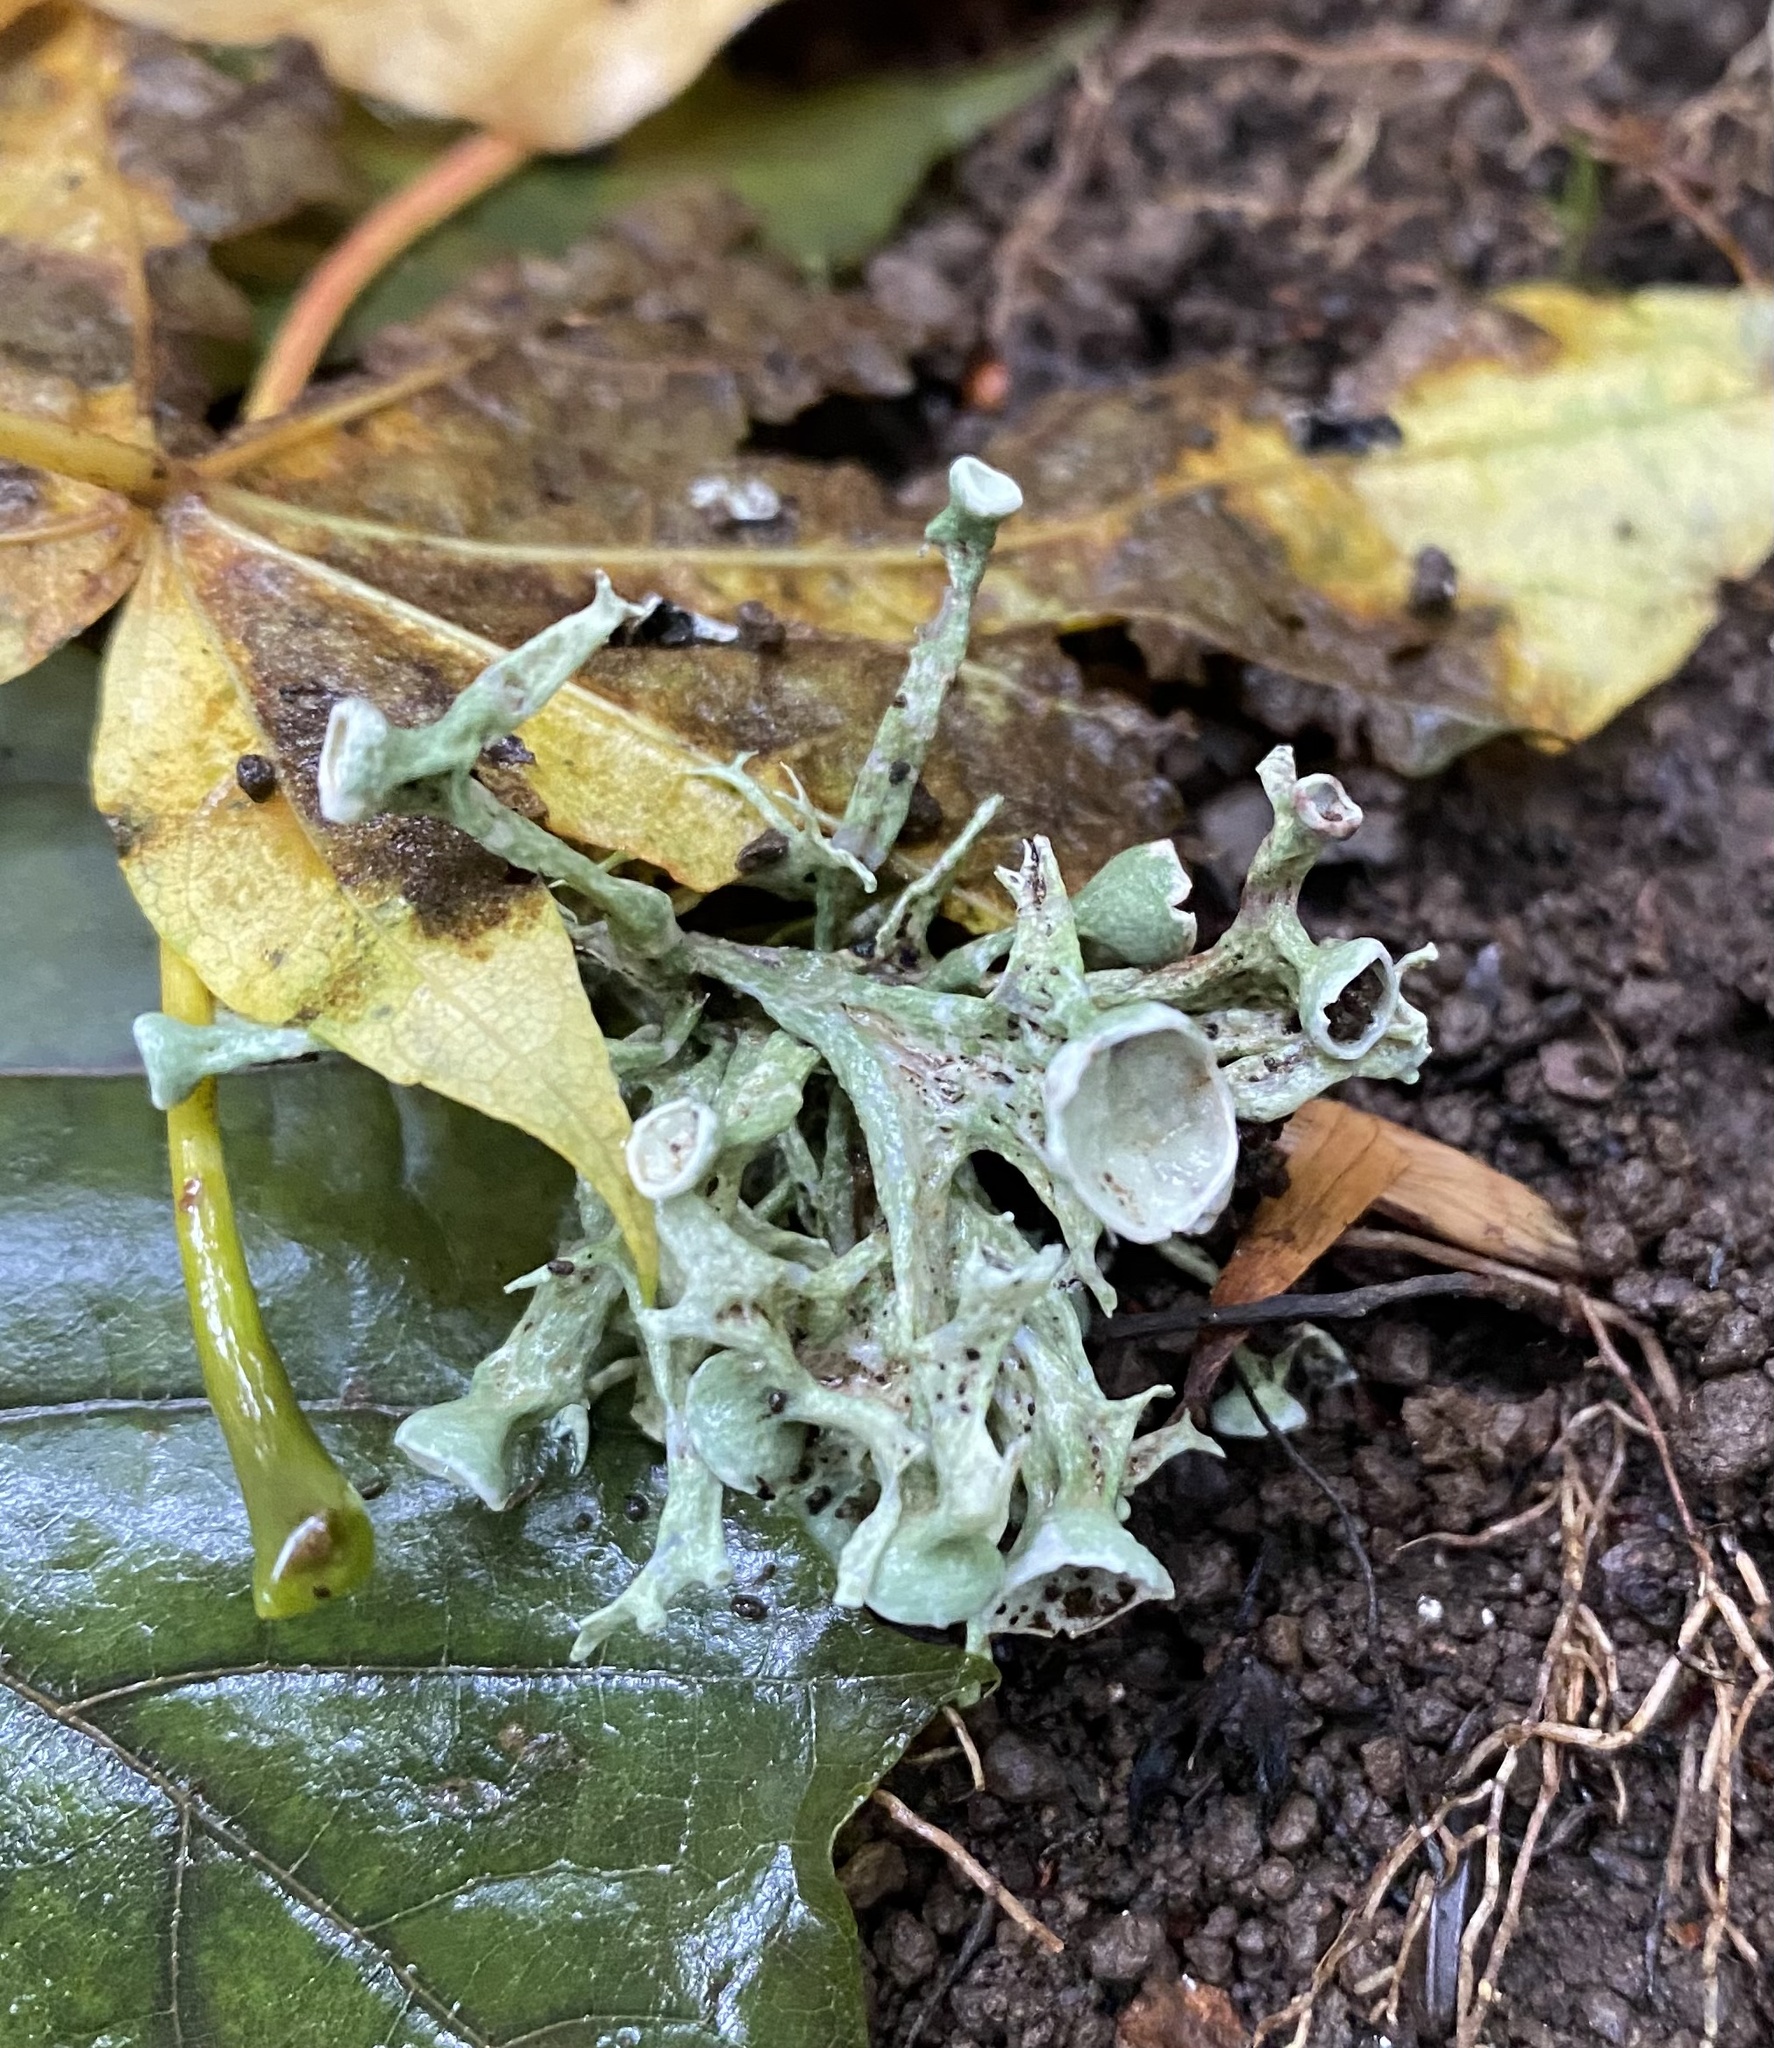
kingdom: Fungi
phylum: Ascomycota
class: Lecanoromycetes
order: Lecanorales
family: Ramalinaceae
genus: Ramalina
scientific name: Ramalina
